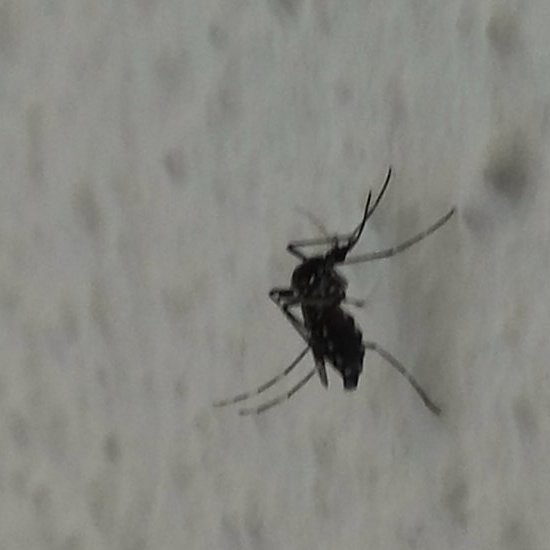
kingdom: Animalia
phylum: Arthropoda
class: Insecta
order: Diptera
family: Culicidae
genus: Aedes
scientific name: Aedes albopictus
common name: Tiger mosquito
